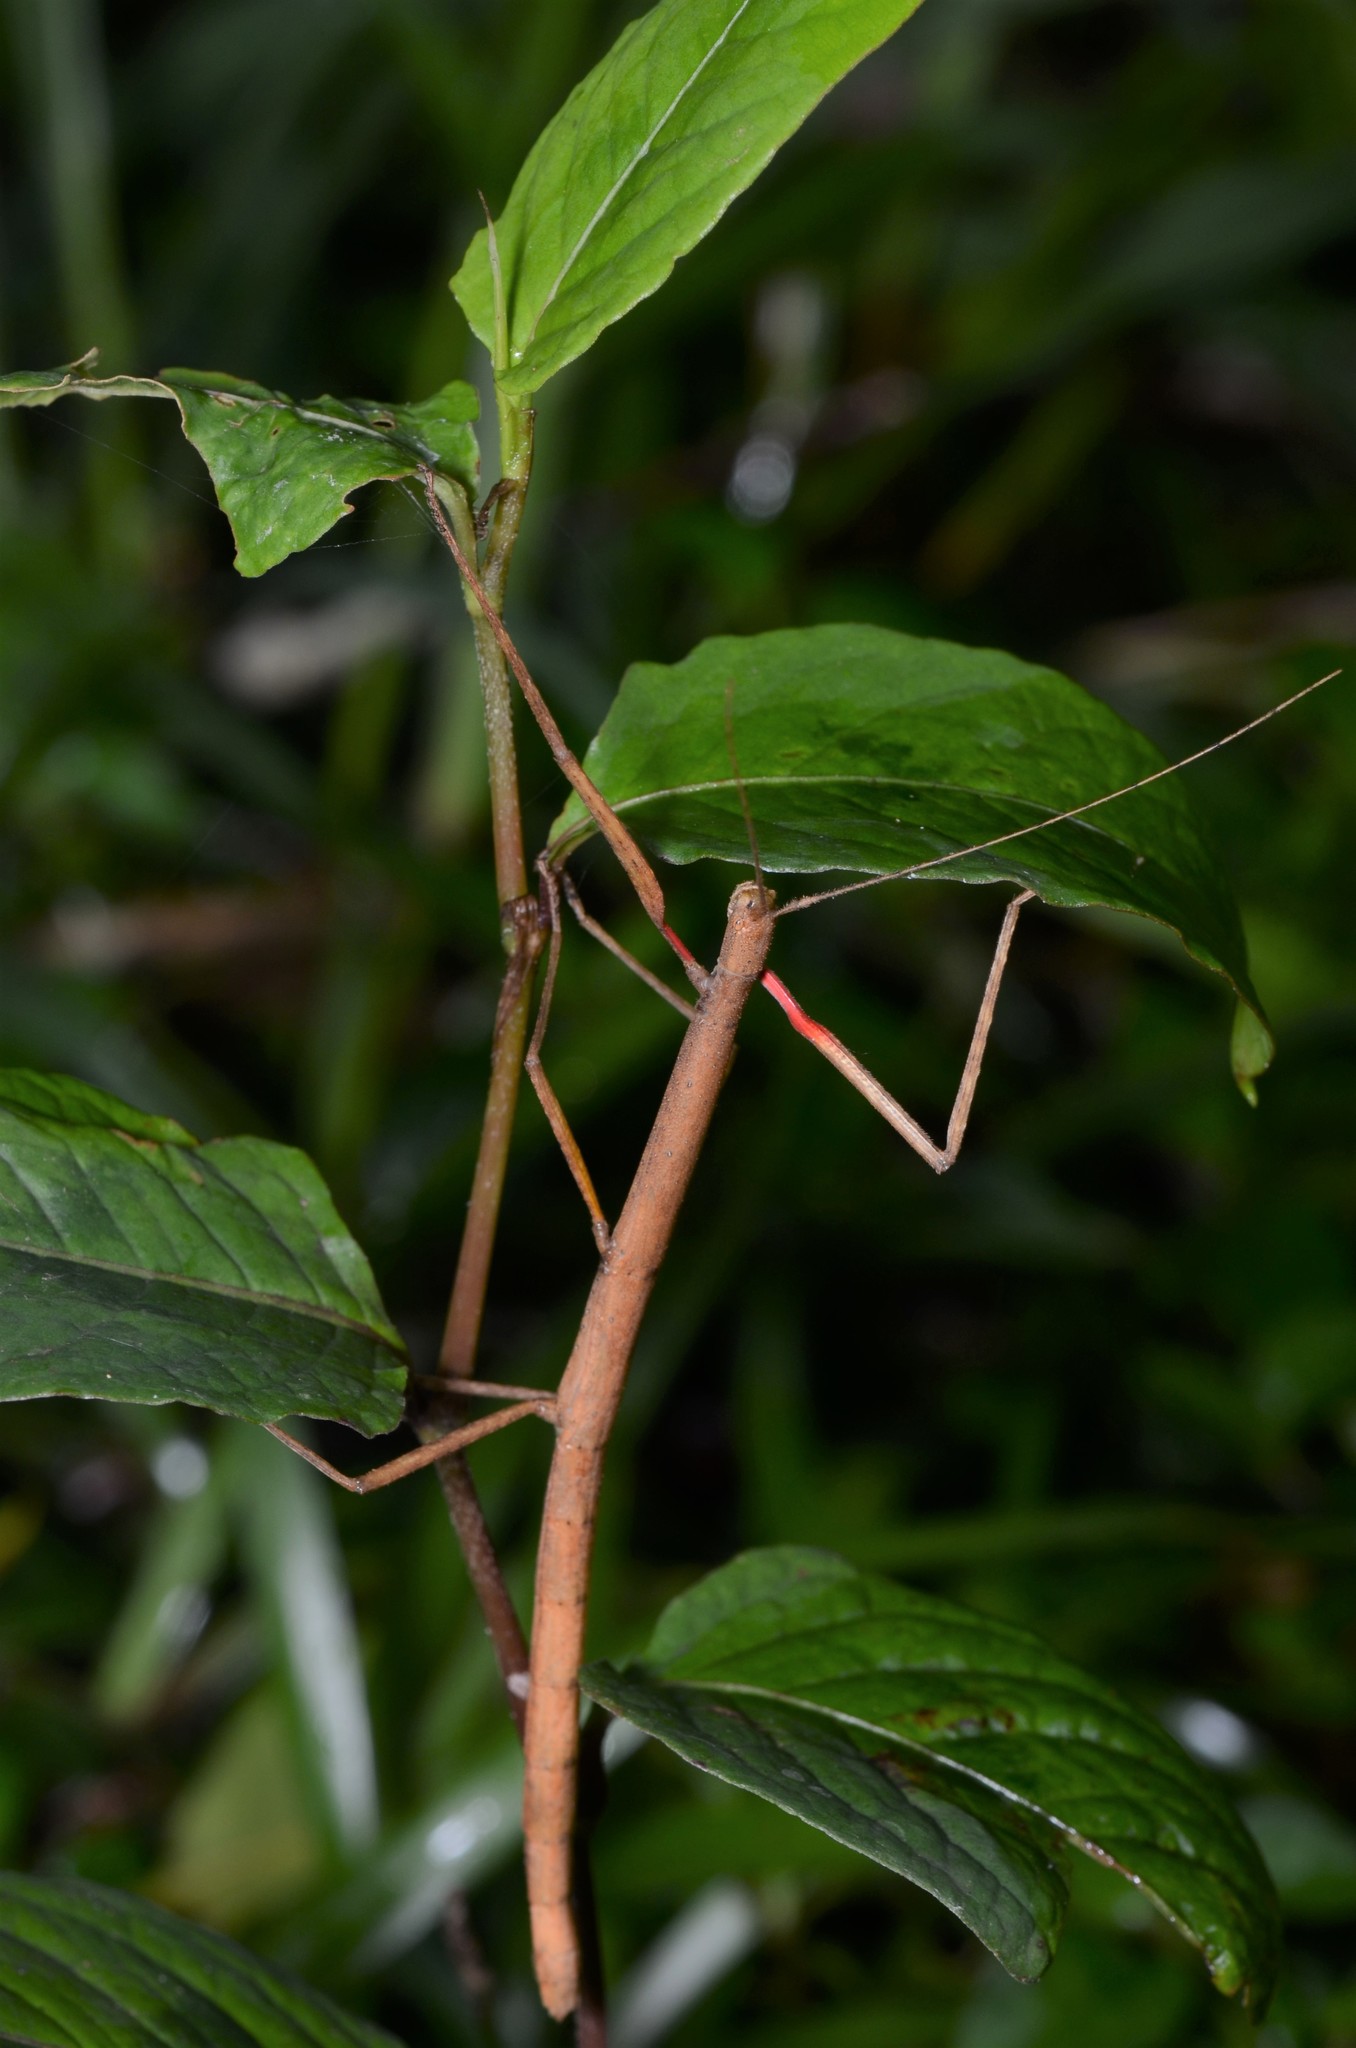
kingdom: Animalia
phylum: Arthropoda
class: Insecta
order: Phasmida
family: Lonchodidae
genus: Carausius
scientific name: Carausius morosus
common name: Indian stick insect
